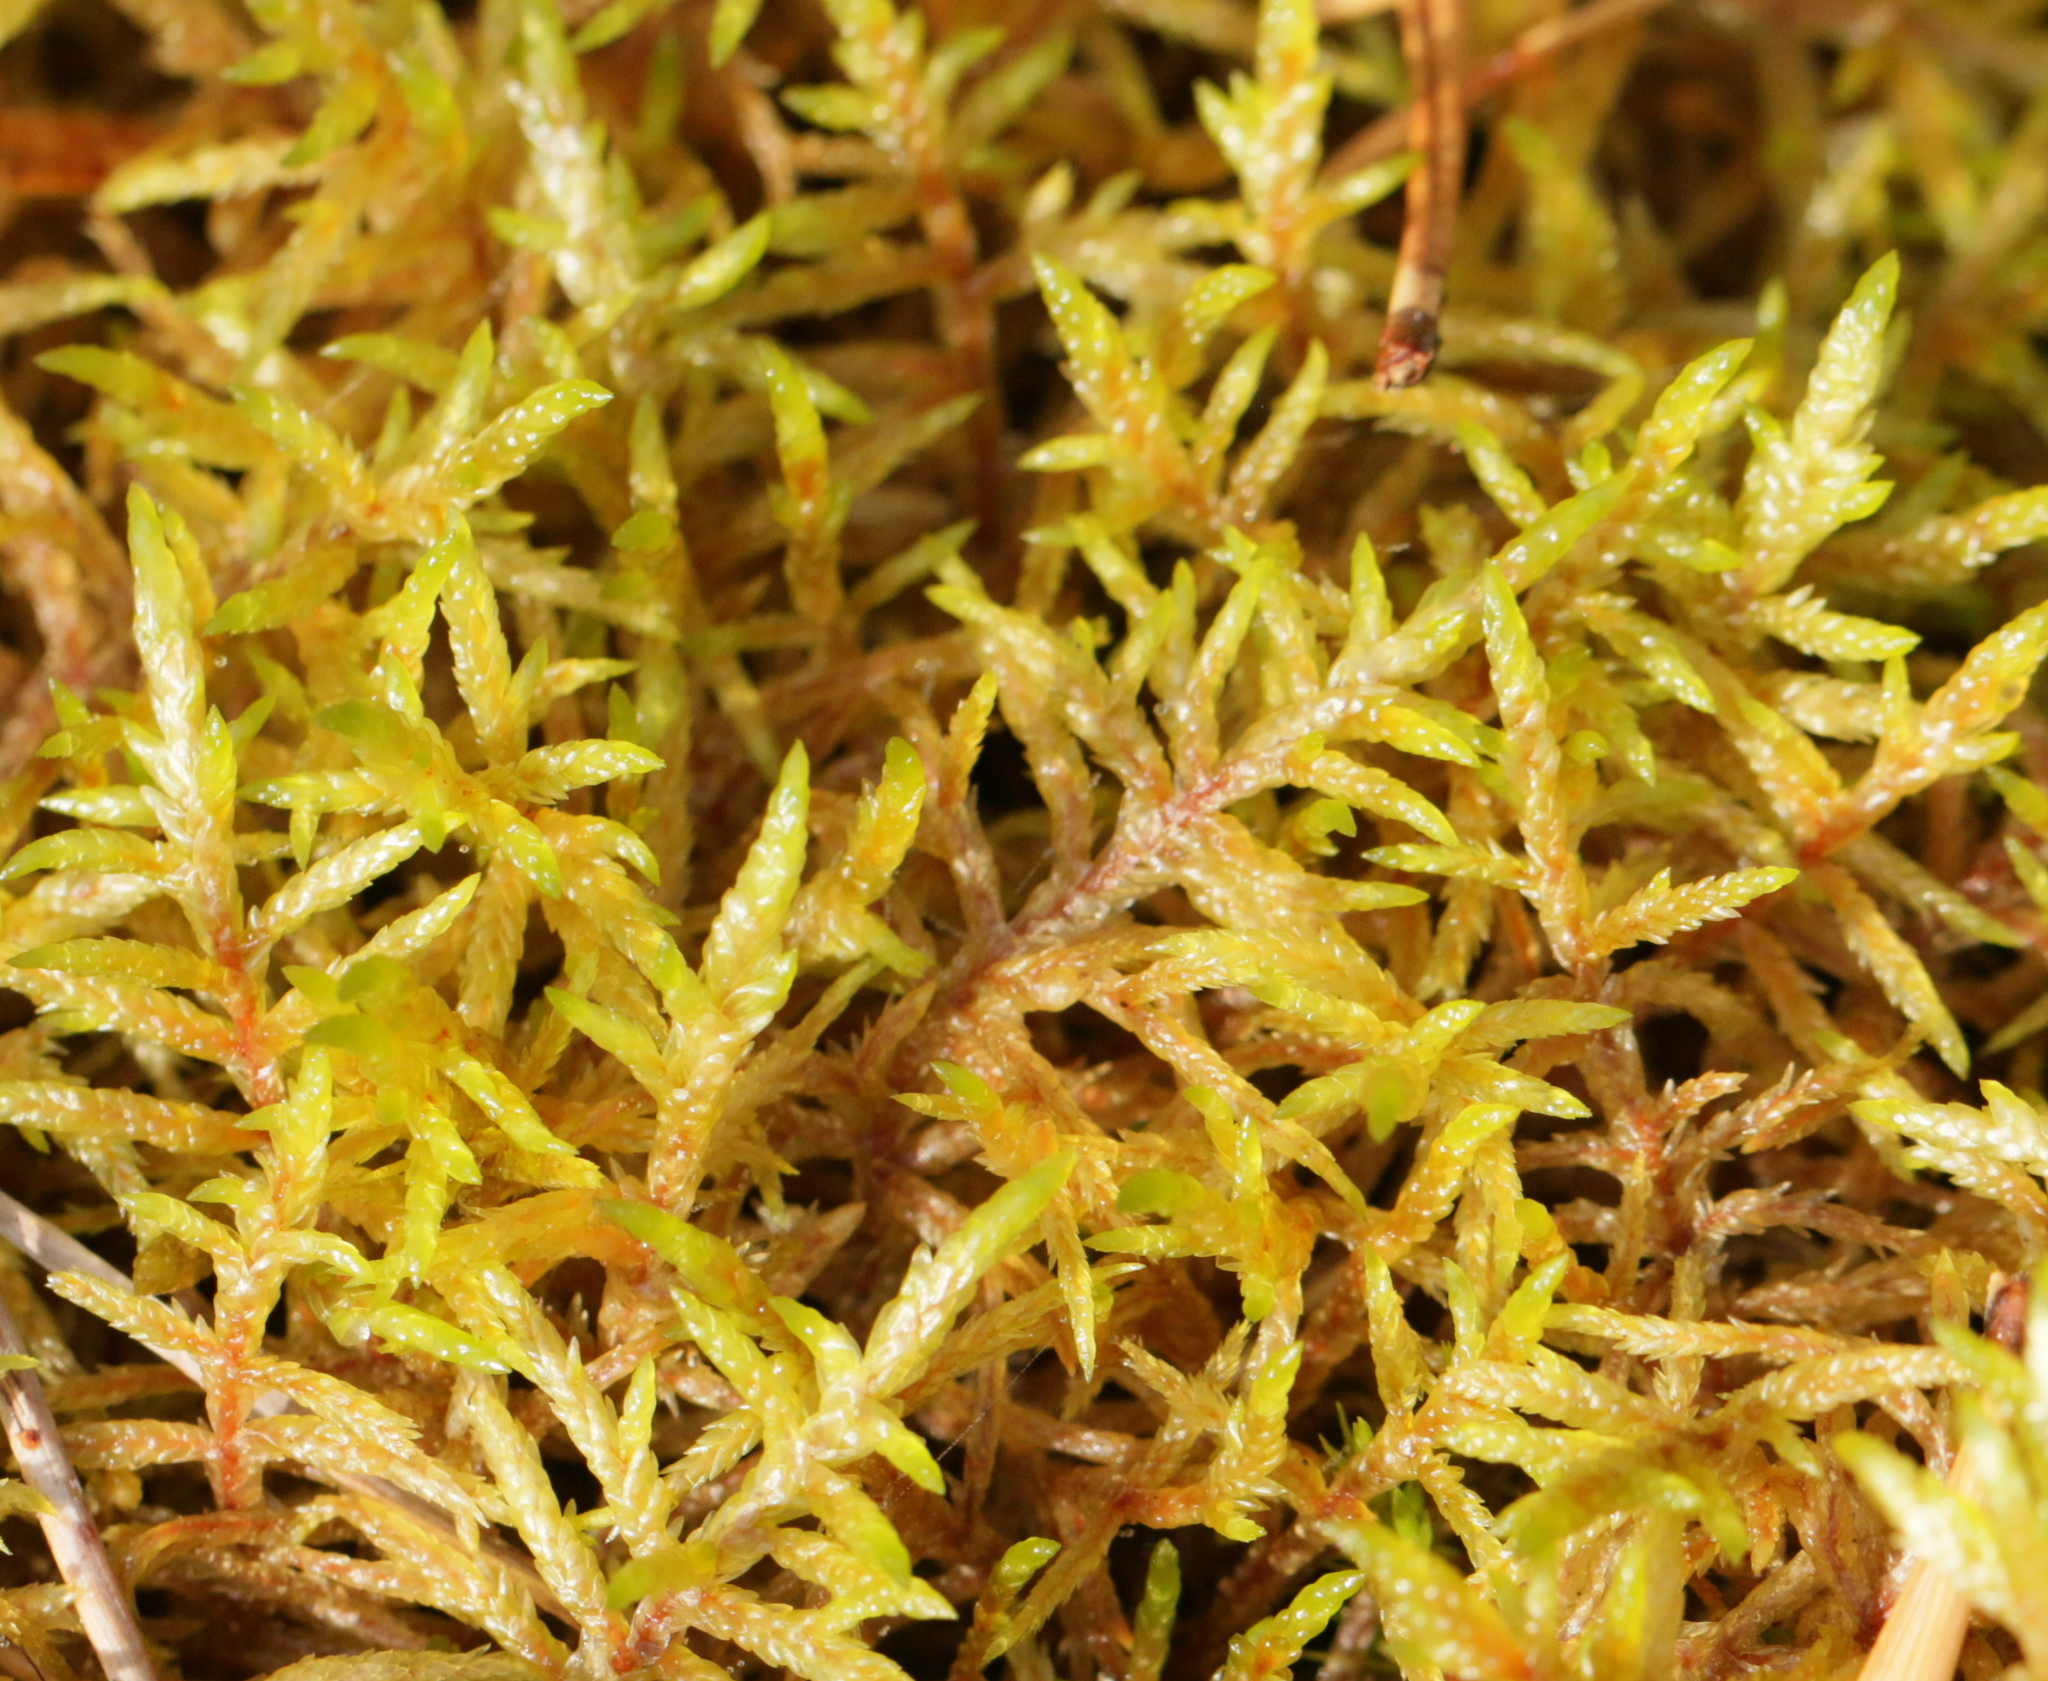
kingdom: Plantae
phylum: Bryophyta
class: Bryopsida
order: Hypnales
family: Hylocomiaceae
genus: Pleurozium
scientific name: Pleurozium schreberi
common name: Red-stemmed feather moss
